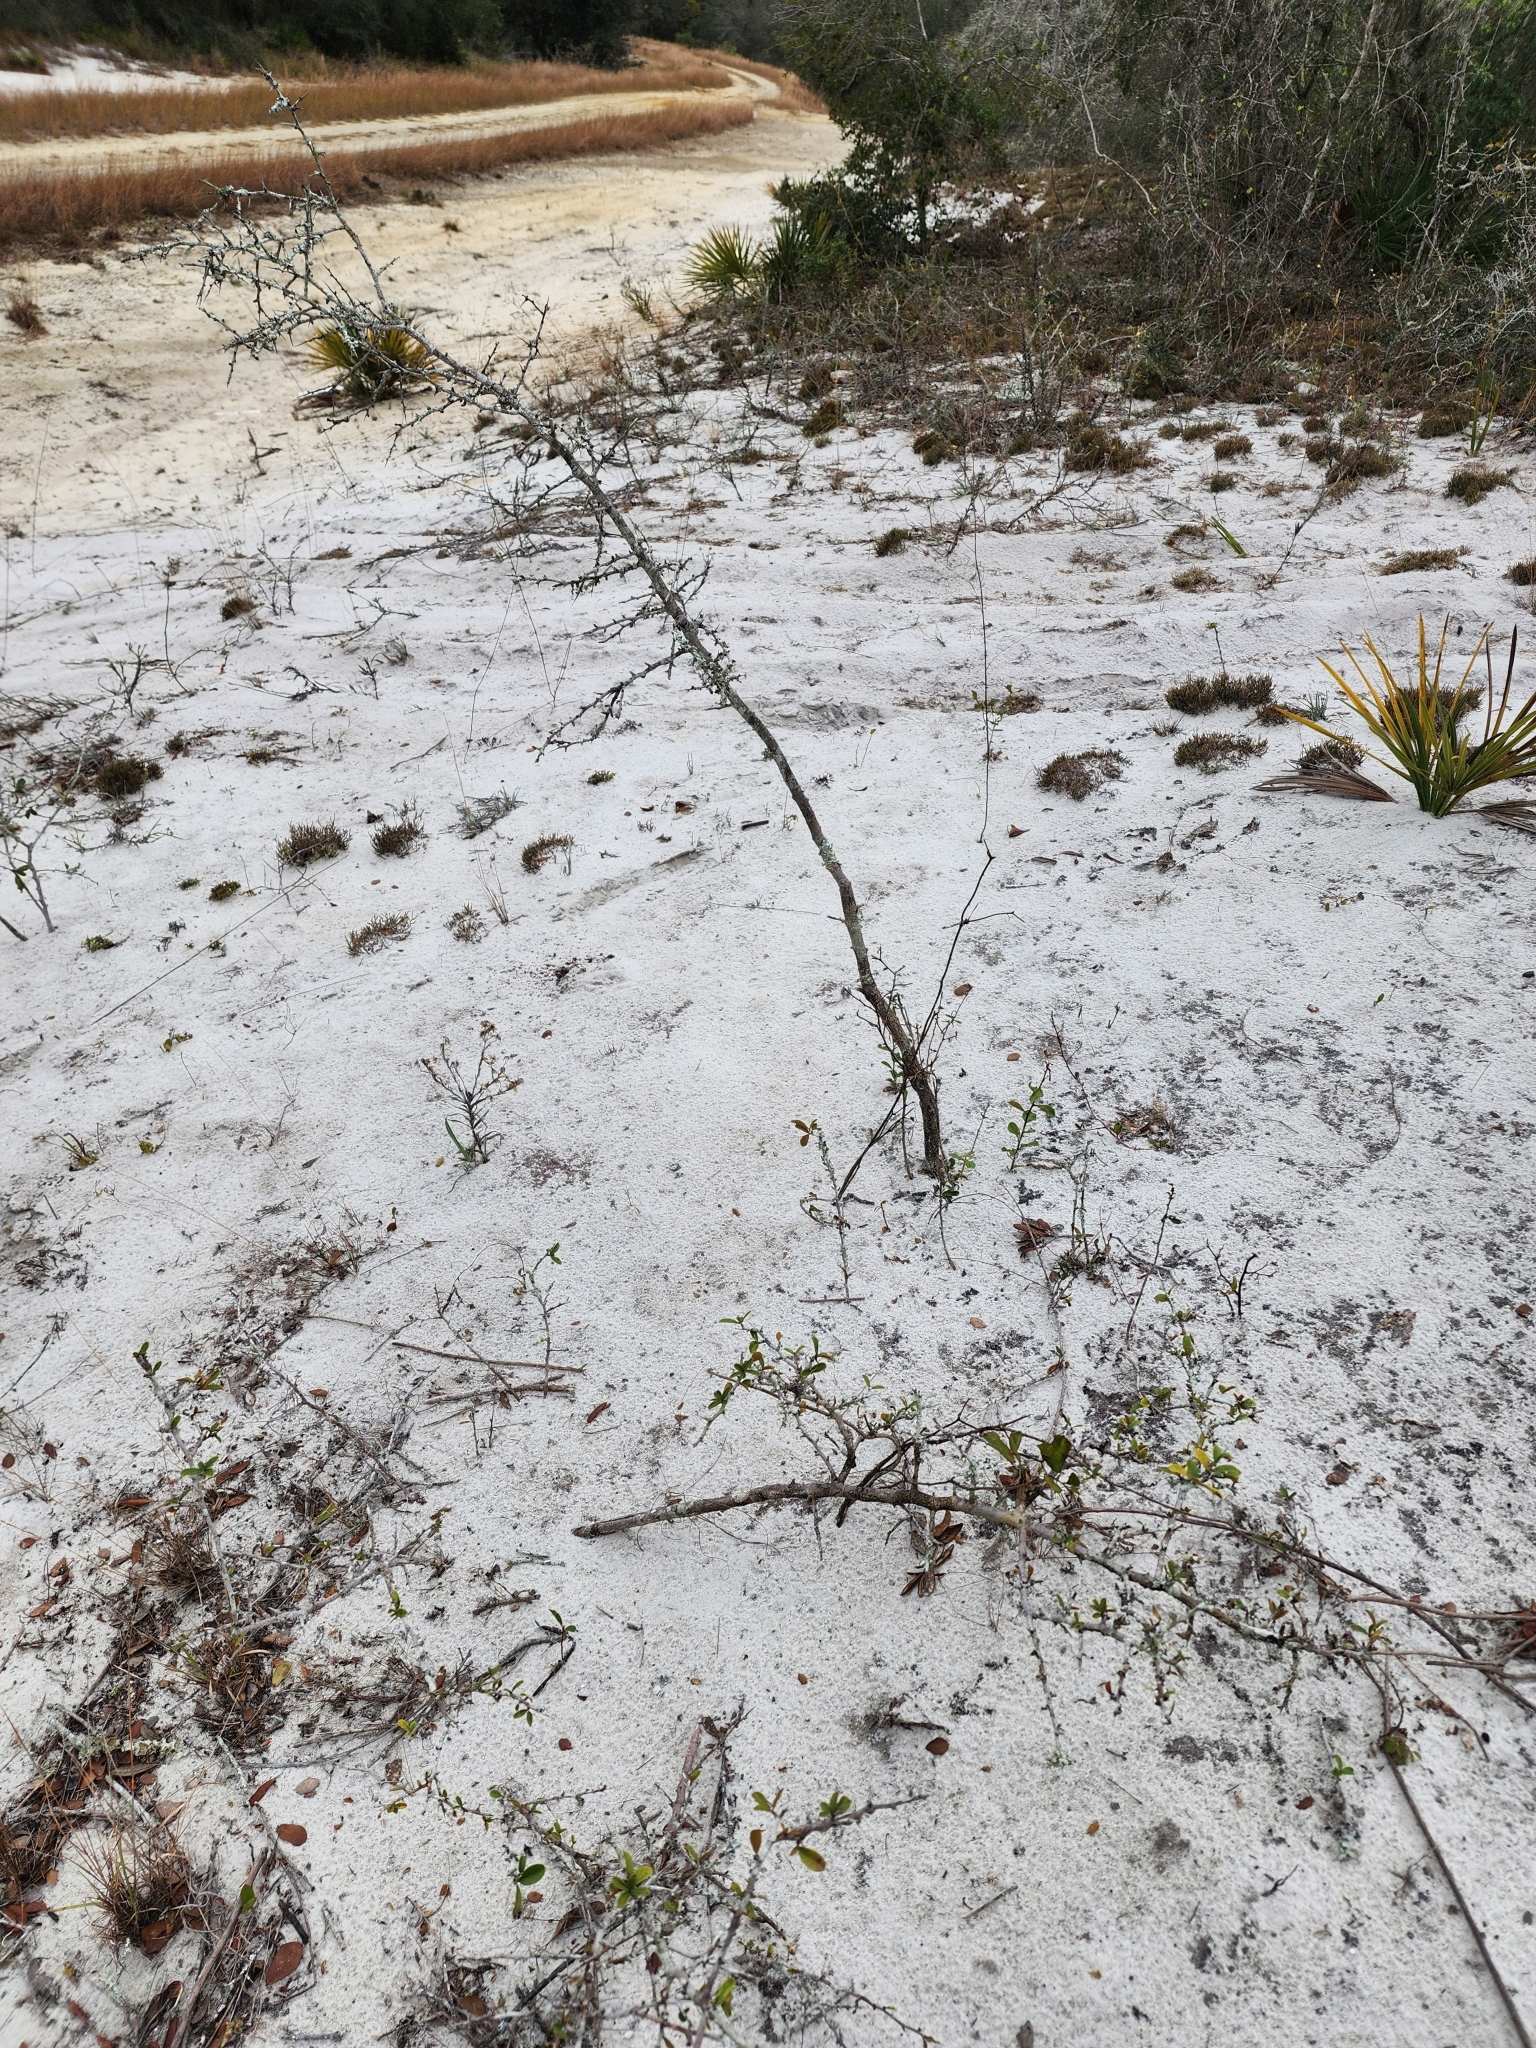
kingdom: Plantae
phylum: Tracheophyta
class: Magnoliopsida
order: Ericales
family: Sapotaceae
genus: Sideroxylon
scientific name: Sideroxylon tenax
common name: Tough-buckthorn
